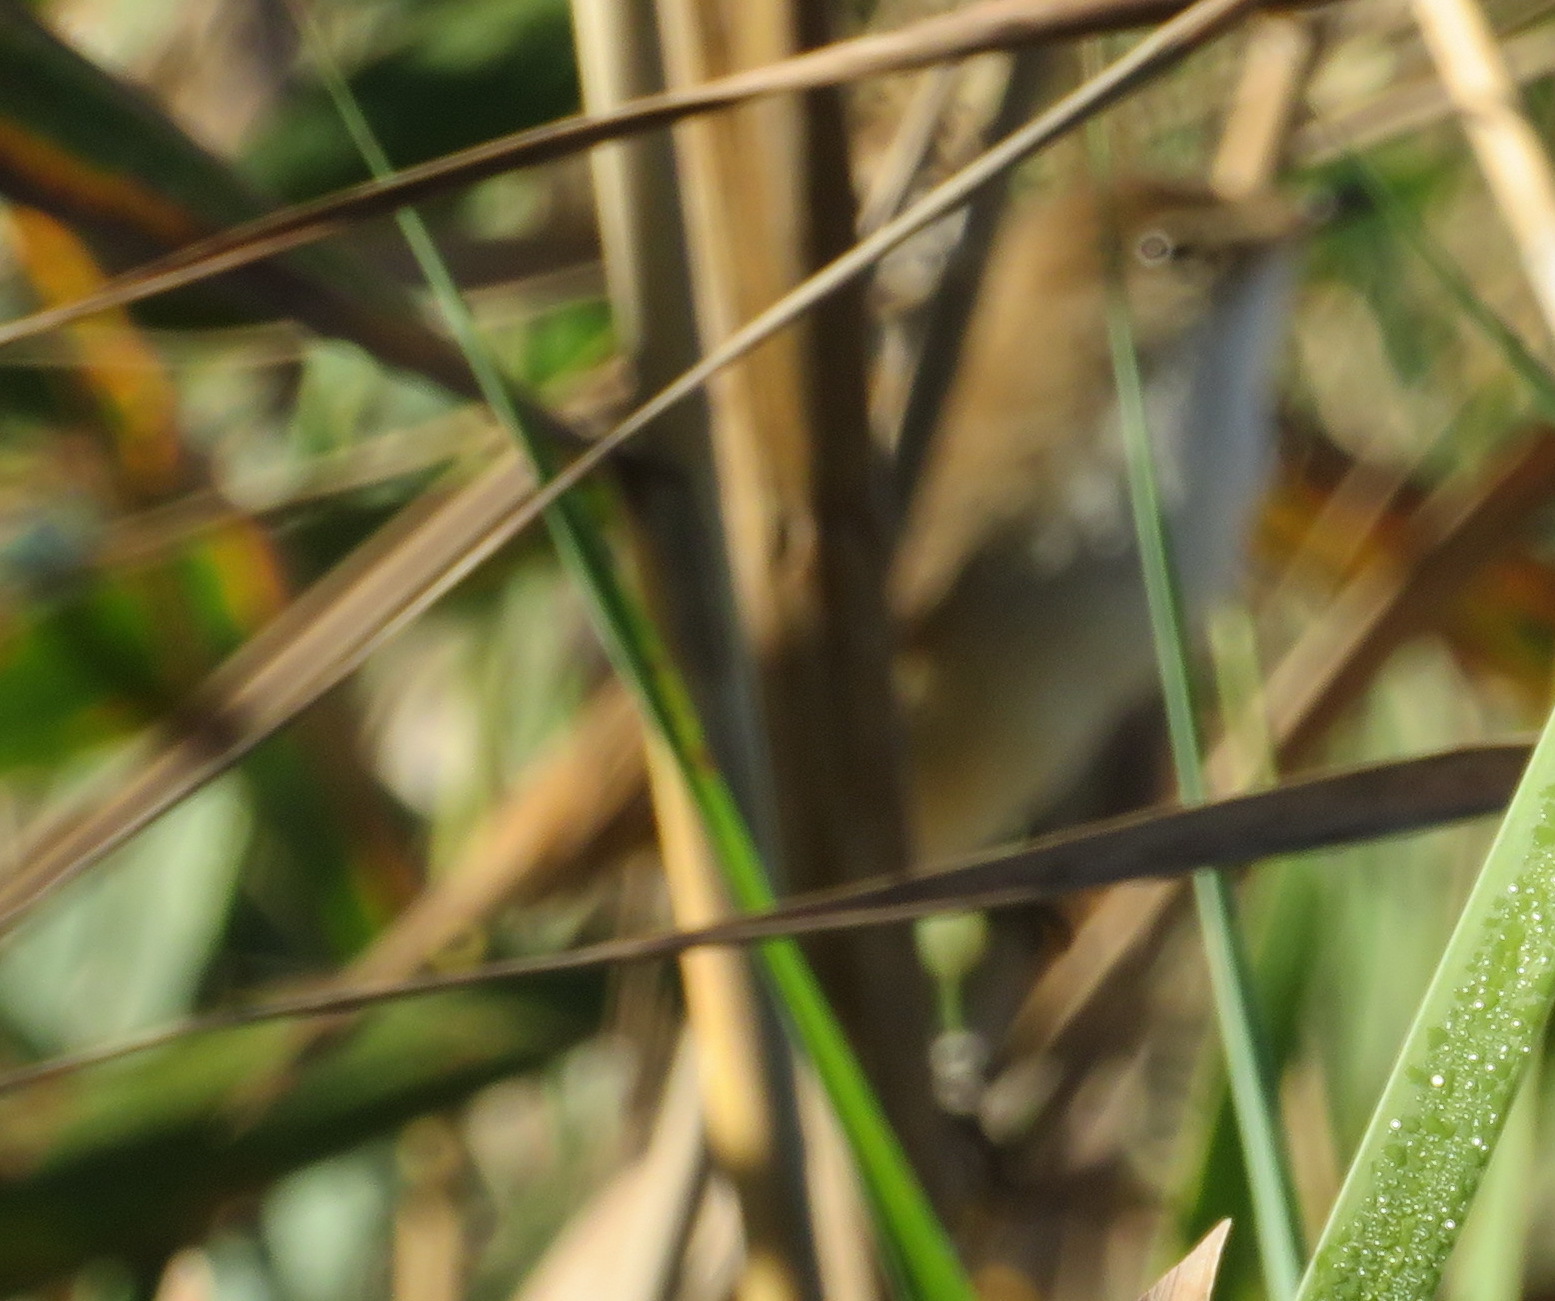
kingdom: Animalia
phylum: Chordata
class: Aves
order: Passeriformes
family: Acrocephalidae
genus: Acrocephalus
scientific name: Acrocephalus scirpaceus
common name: Eurasian reed warbler
